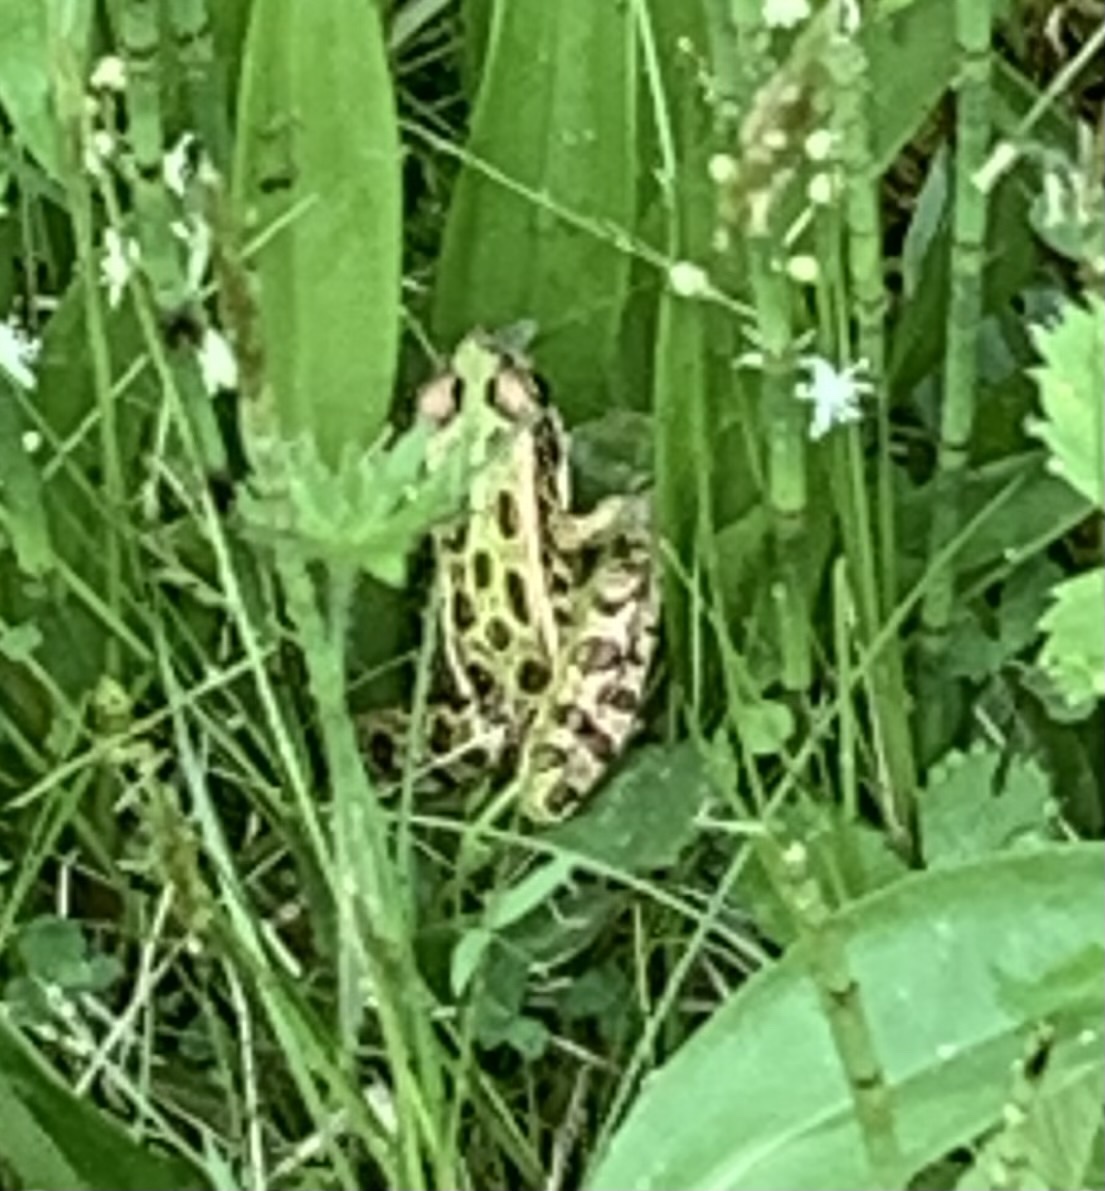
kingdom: Animalia
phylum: Chordata
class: Amphibia
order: Anura
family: Ranidae
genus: Lithobates
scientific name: Lithobates pipiens
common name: Northern leopard frog
